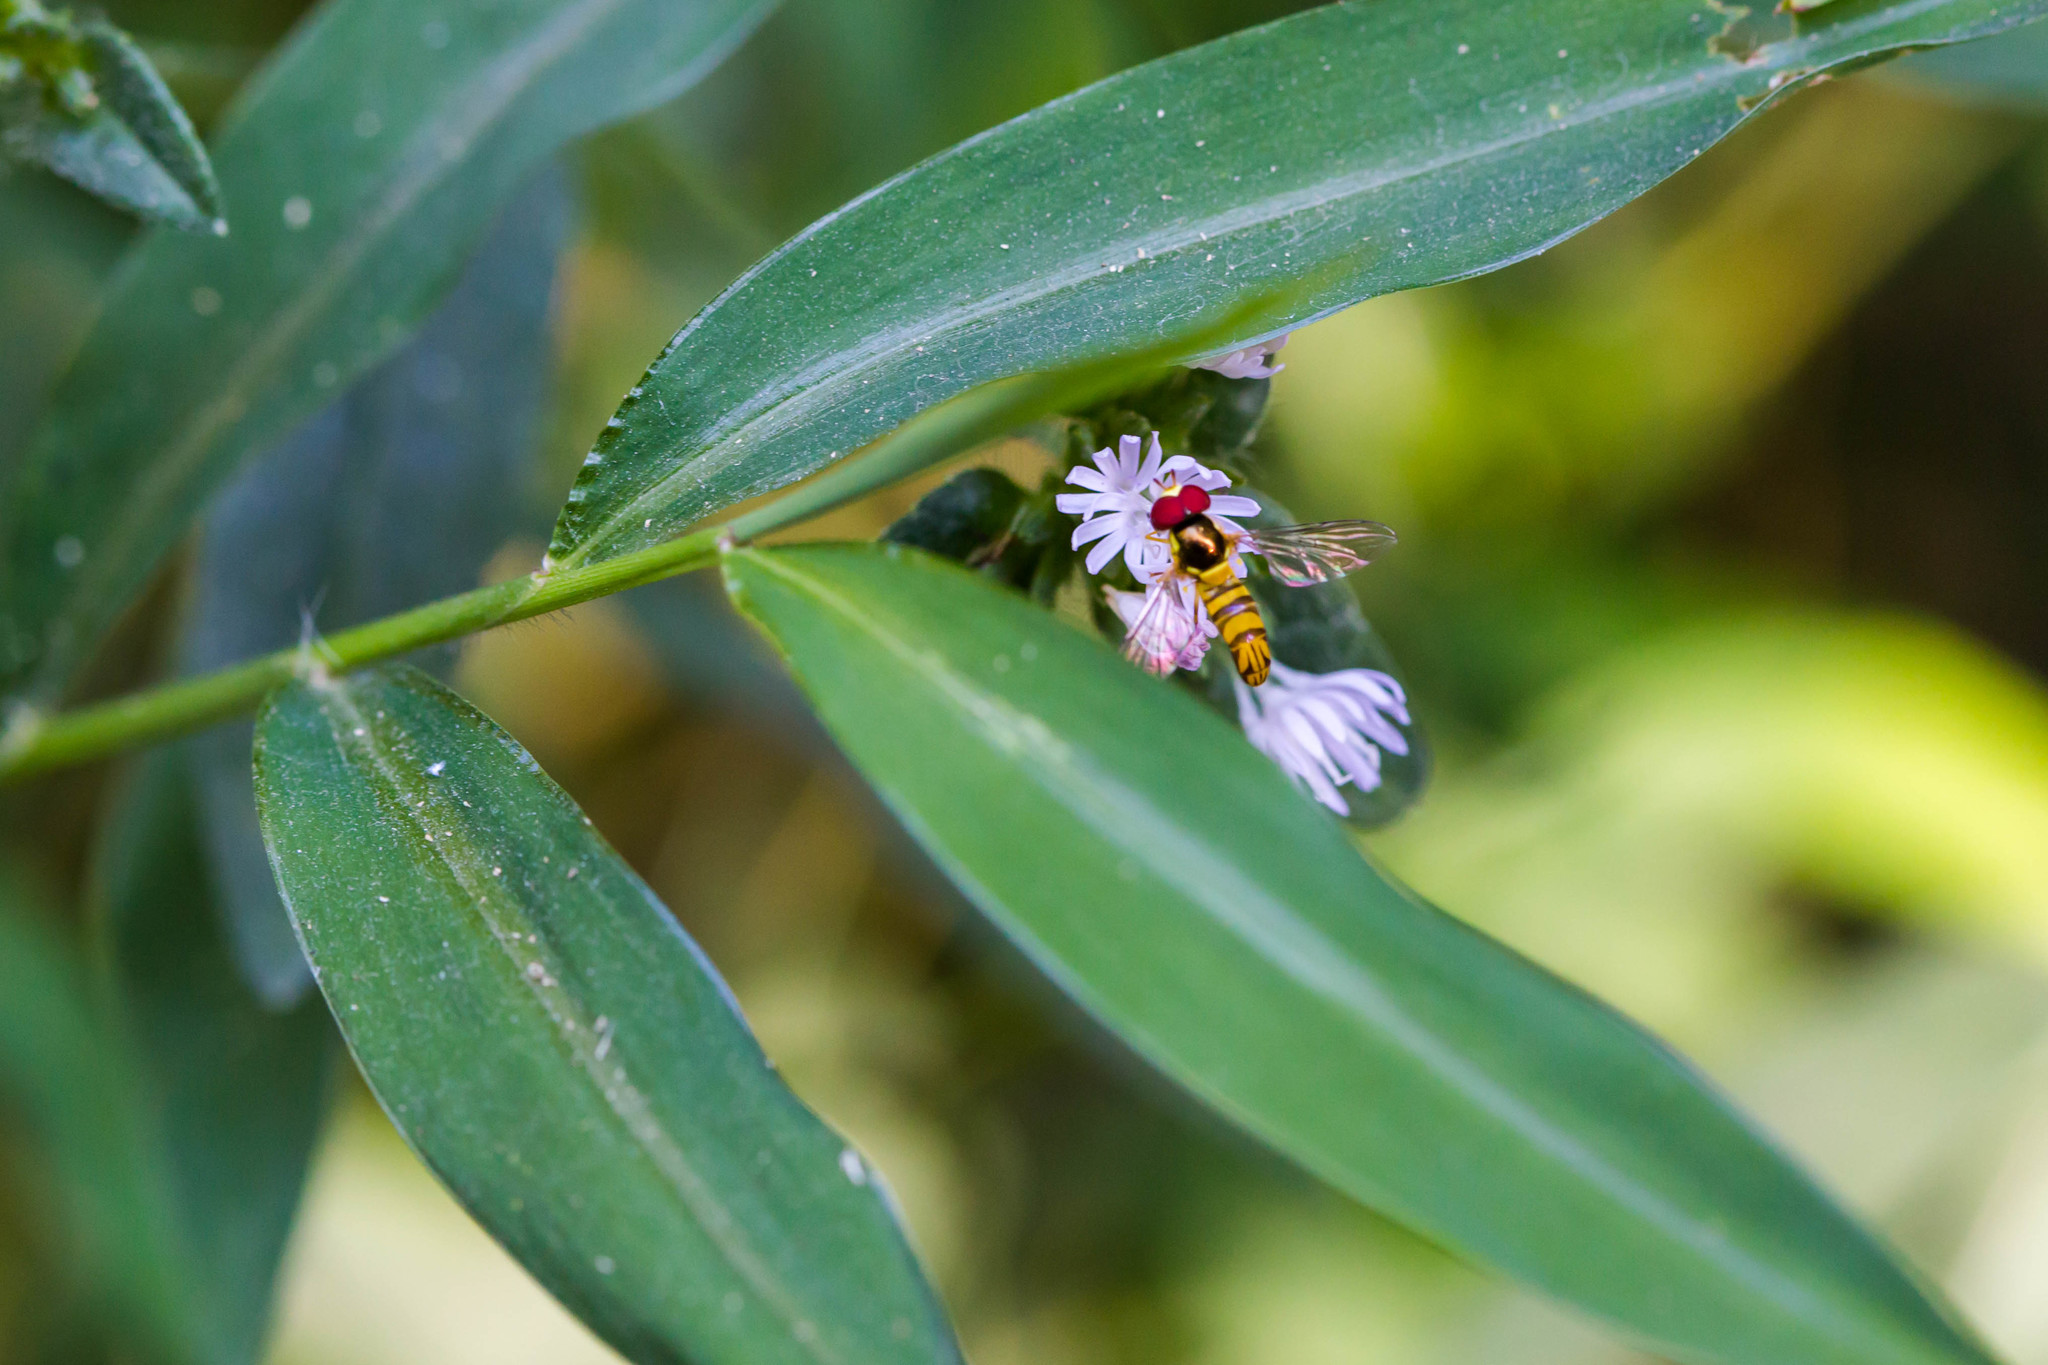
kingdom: Animalia
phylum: Arthropoda
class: Insecta
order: Diptera
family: Syrphidae
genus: Allograpta
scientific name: Allograpta obliqua
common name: Common oblique syrphid
